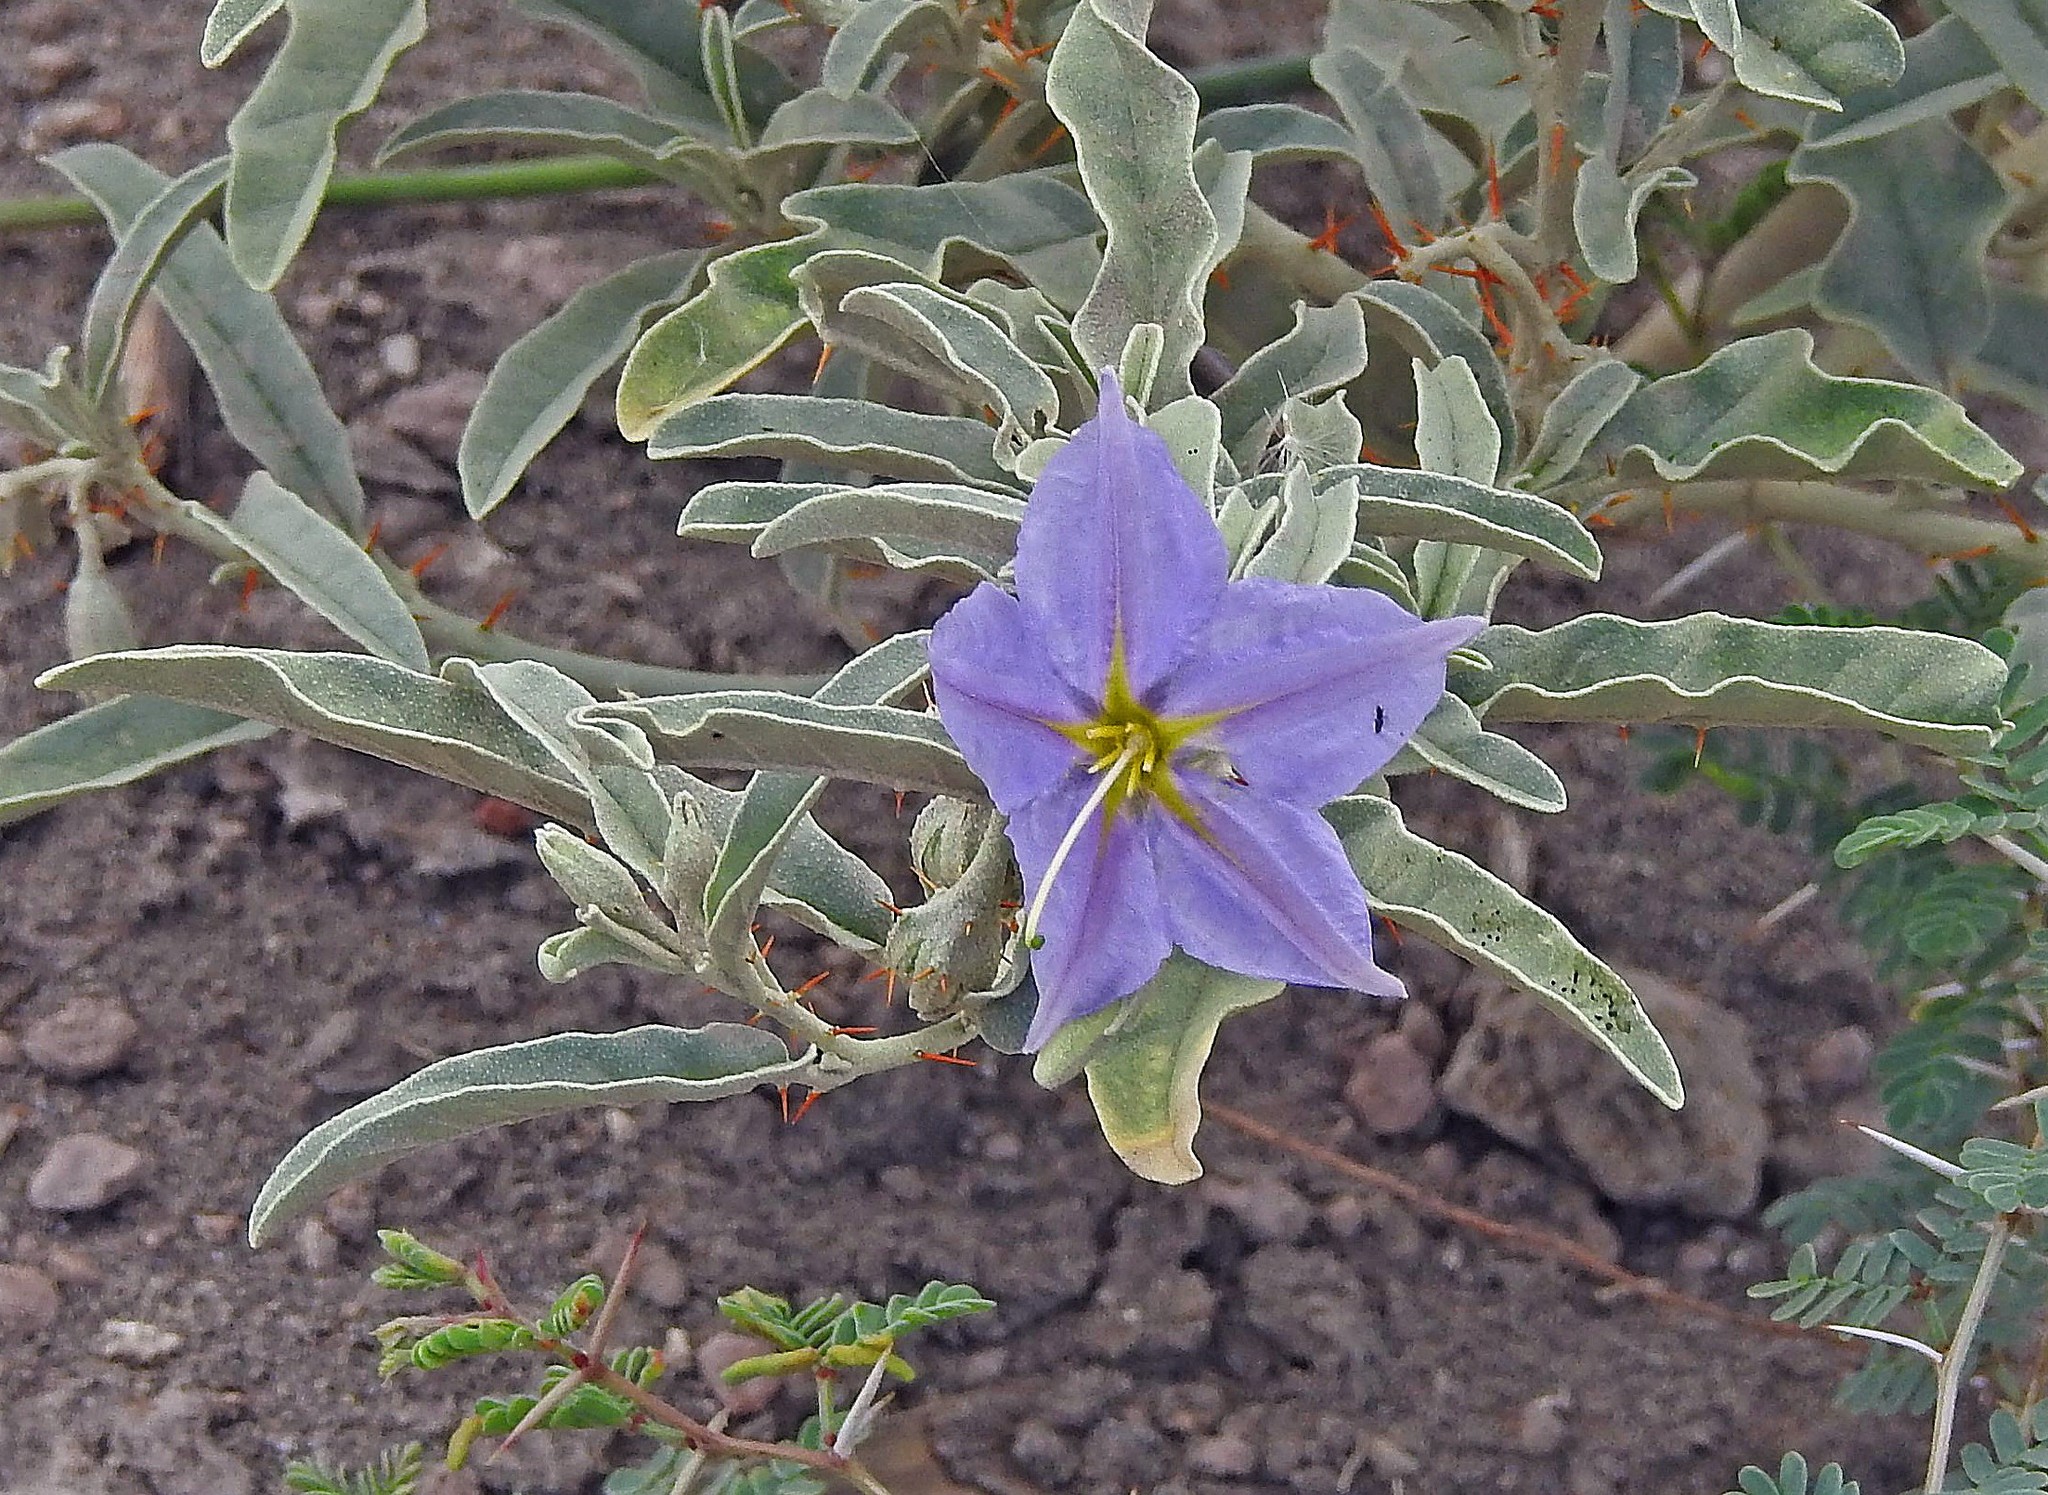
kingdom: Plantae
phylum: Tracheophyta
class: Magnoliopsida
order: Solanales
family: Solanaceae
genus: Solanum
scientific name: Solanum elaeagnifolium
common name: Silverleaf nightshade
